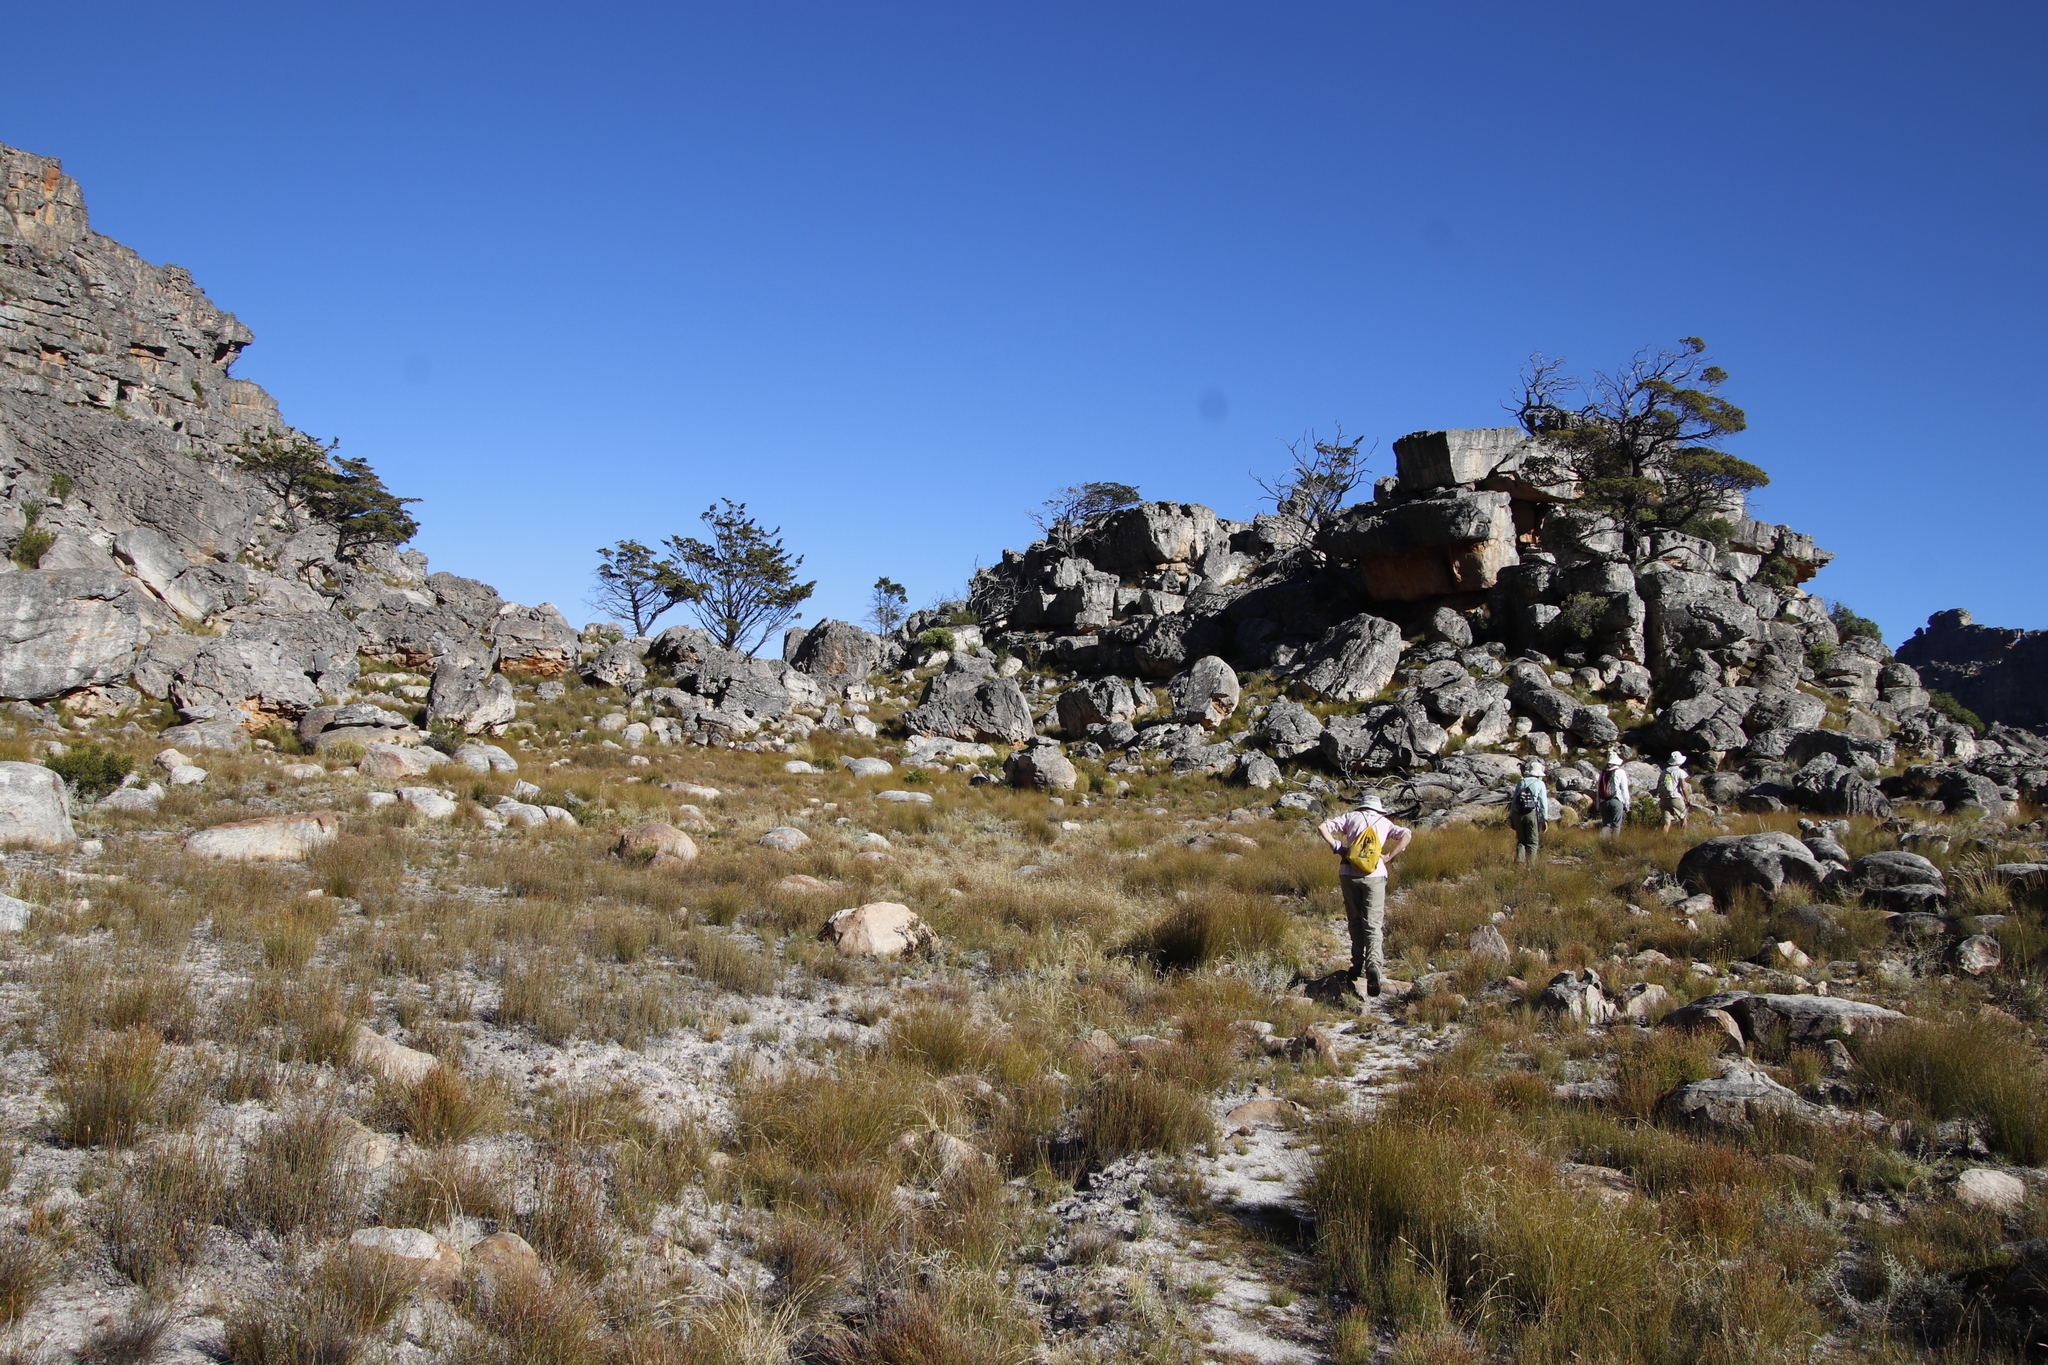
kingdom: Plantae
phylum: Tracheophyta
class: Pinopsida
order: Pinales
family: Cupressaceae
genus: Widdringtonia
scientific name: Widdringtonia nodiflora
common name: Cape cypress
